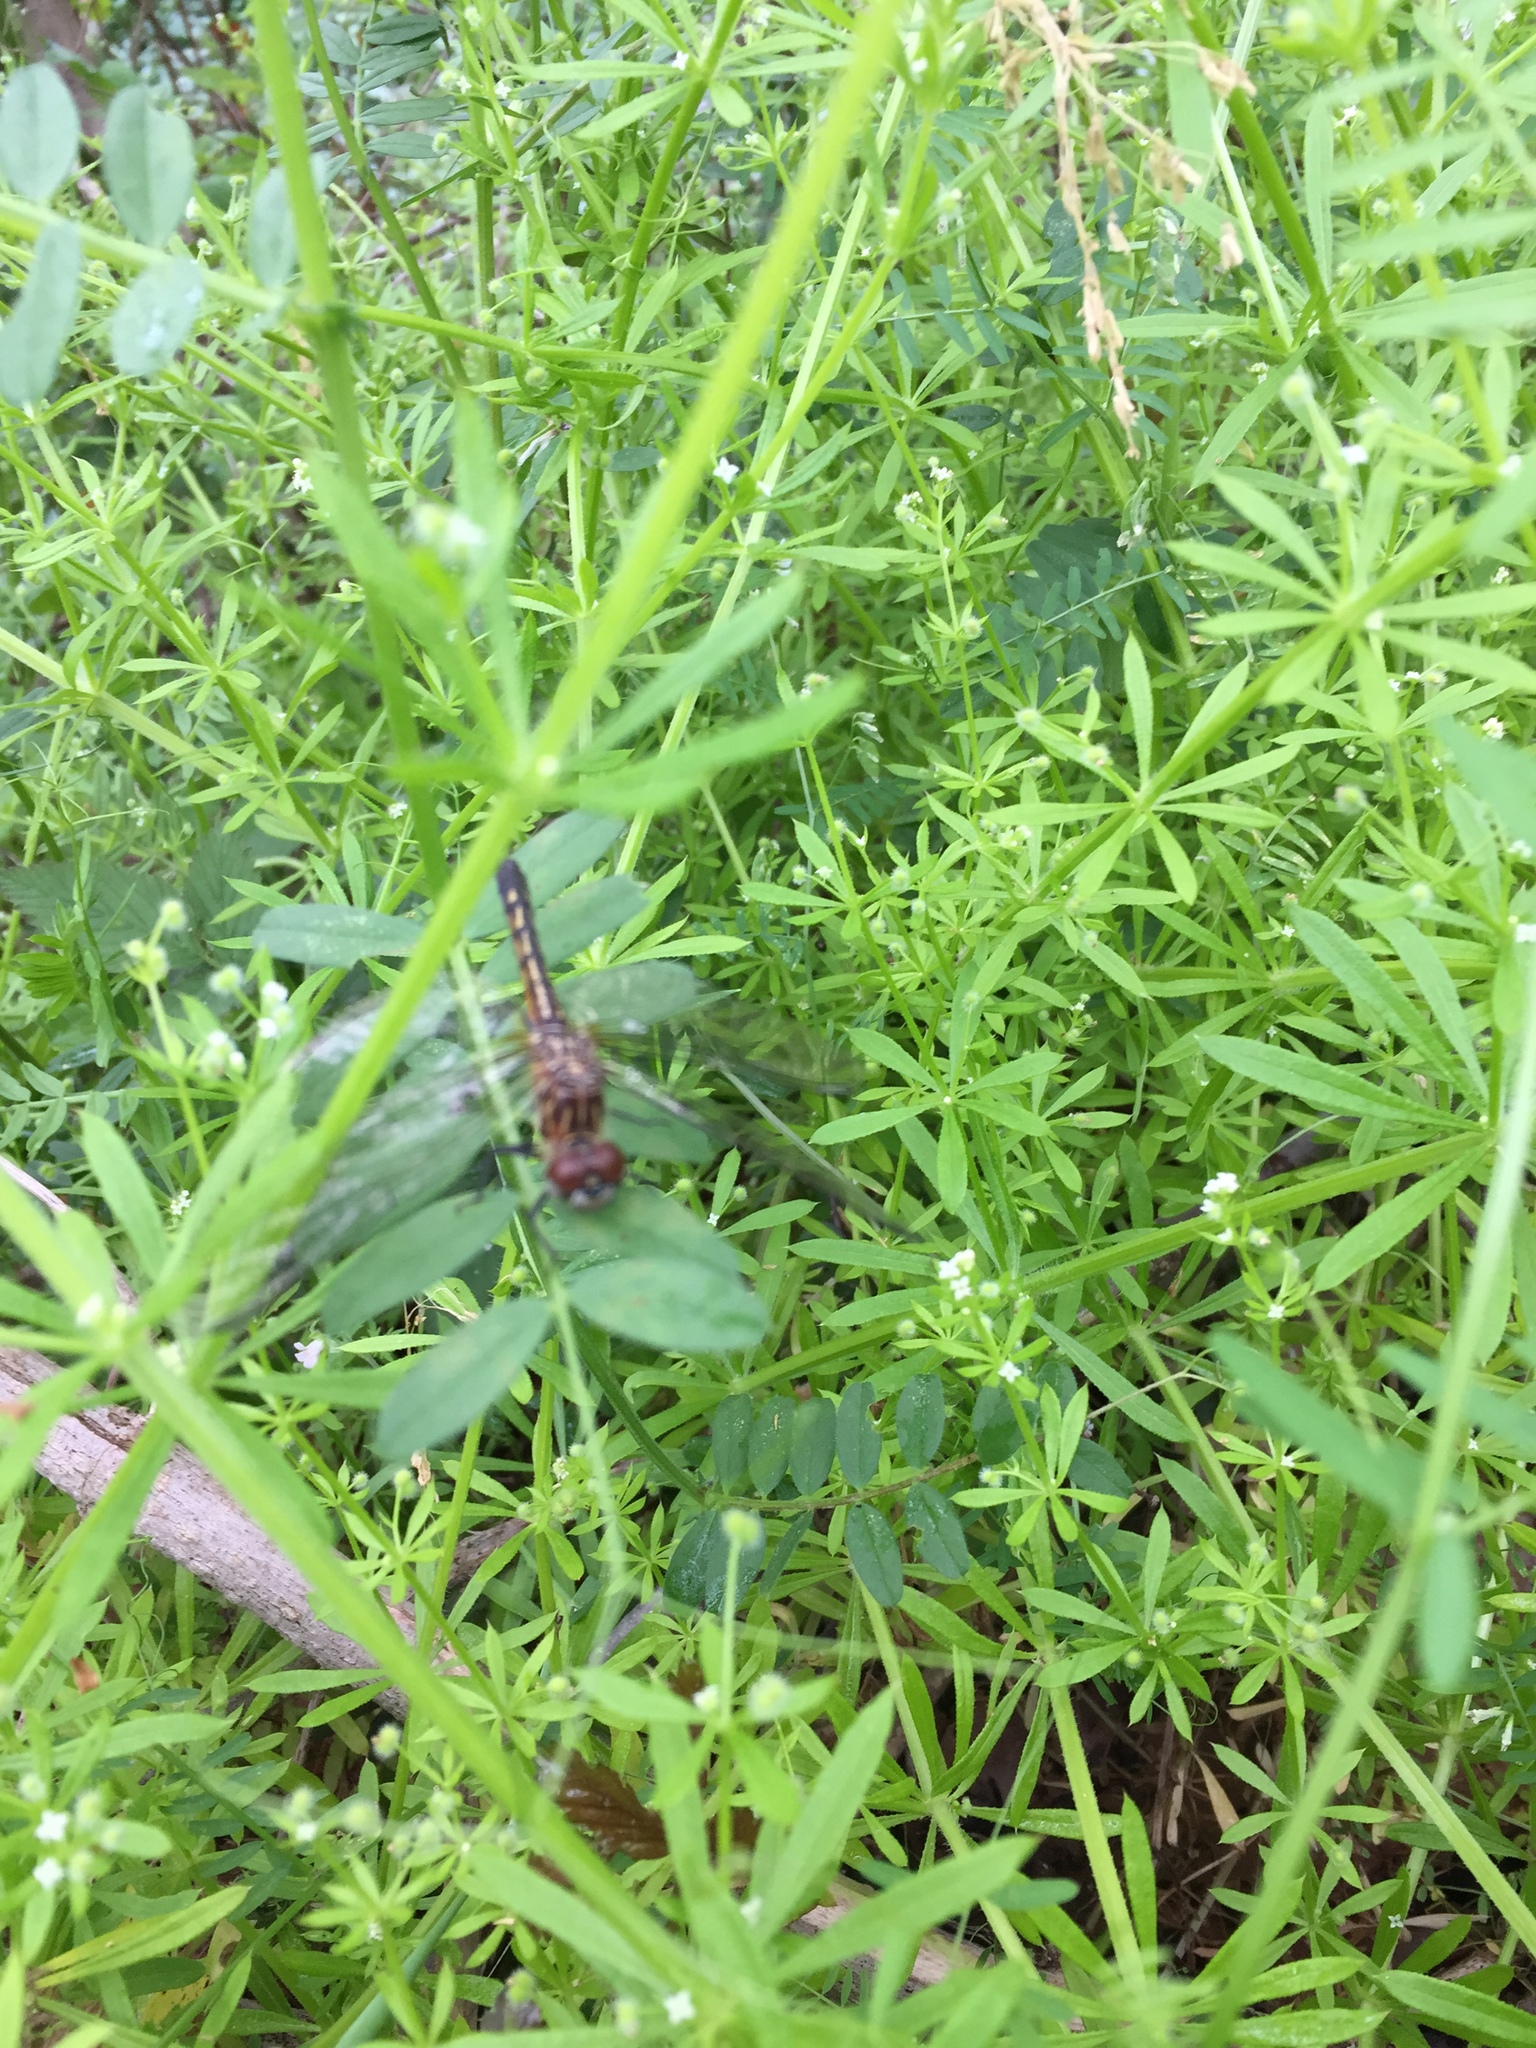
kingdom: Animalia
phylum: Arthropoda
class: Insecta
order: Odonata
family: Libellulidae
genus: Pachydiplax
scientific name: Pachydiplax longipennis
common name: Blue dasher
